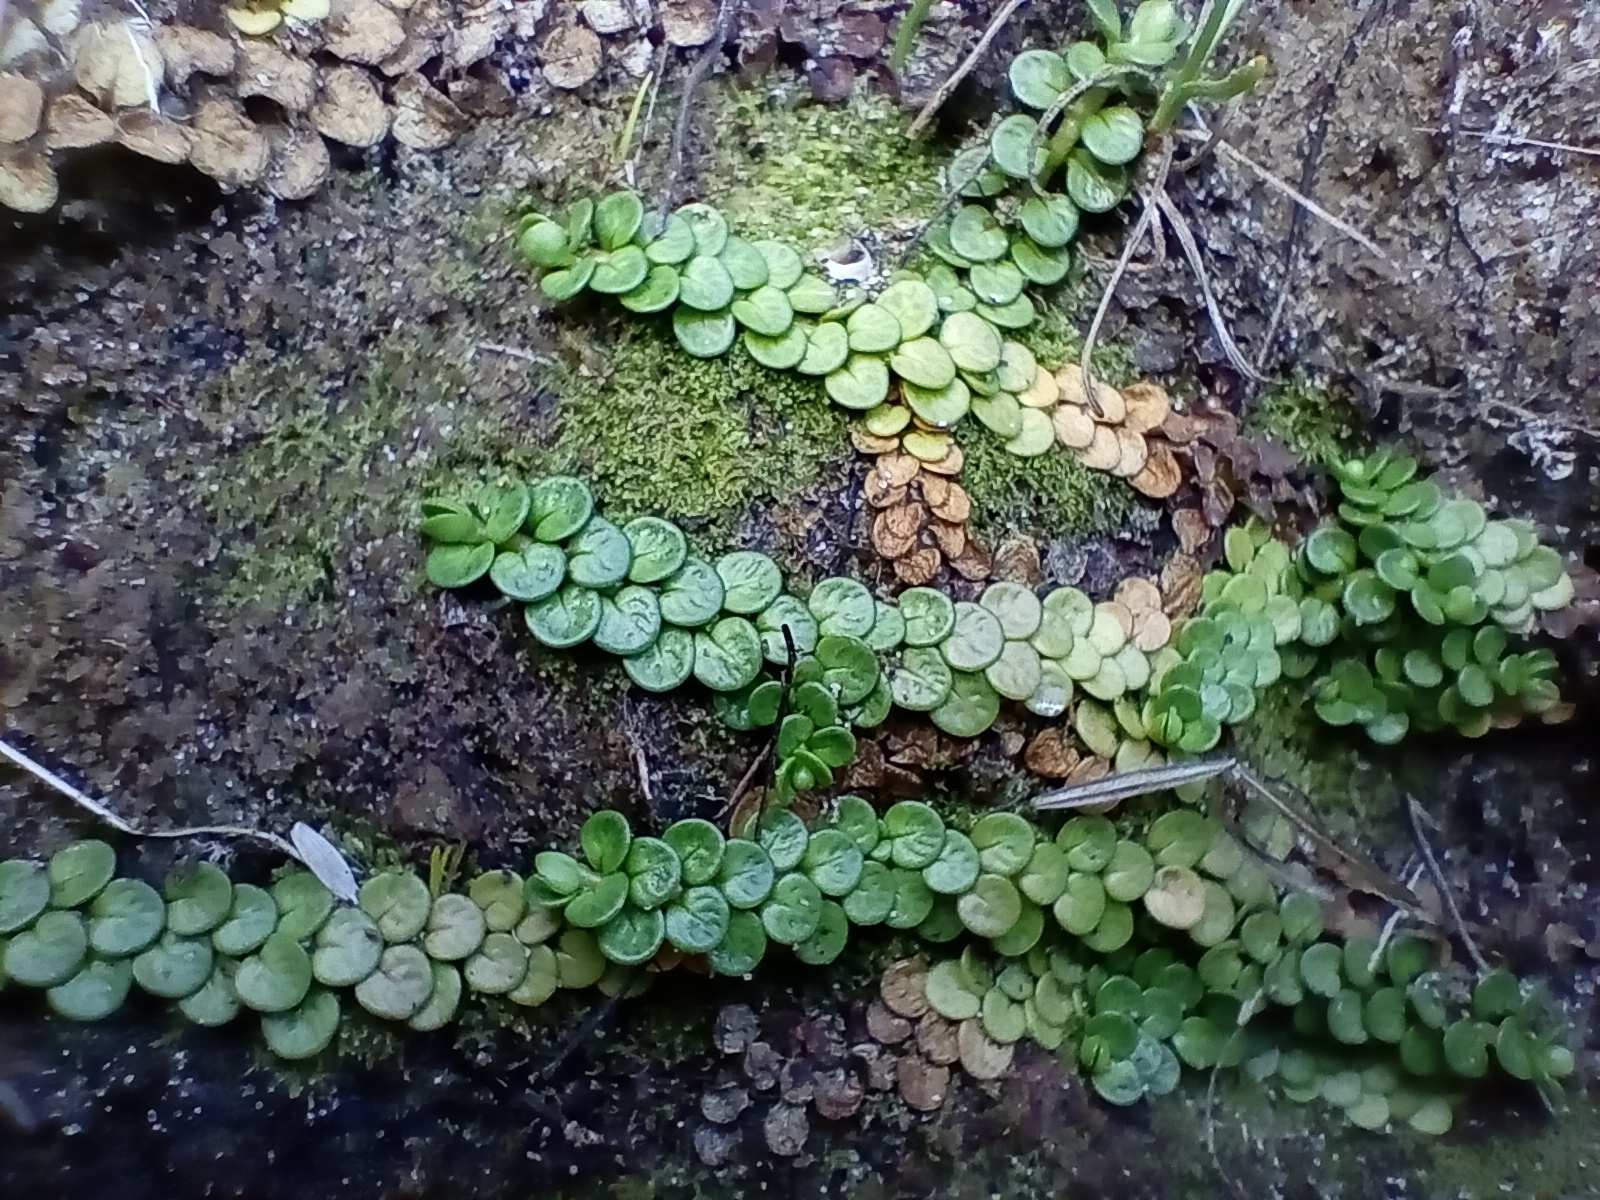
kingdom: Plantae
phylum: Tracheophyta
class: Magnoliopsida
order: Myrtales
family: Onagraceae
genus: Epilobium
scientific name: Epilobium komarovianum
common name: Bronzy willowherb
